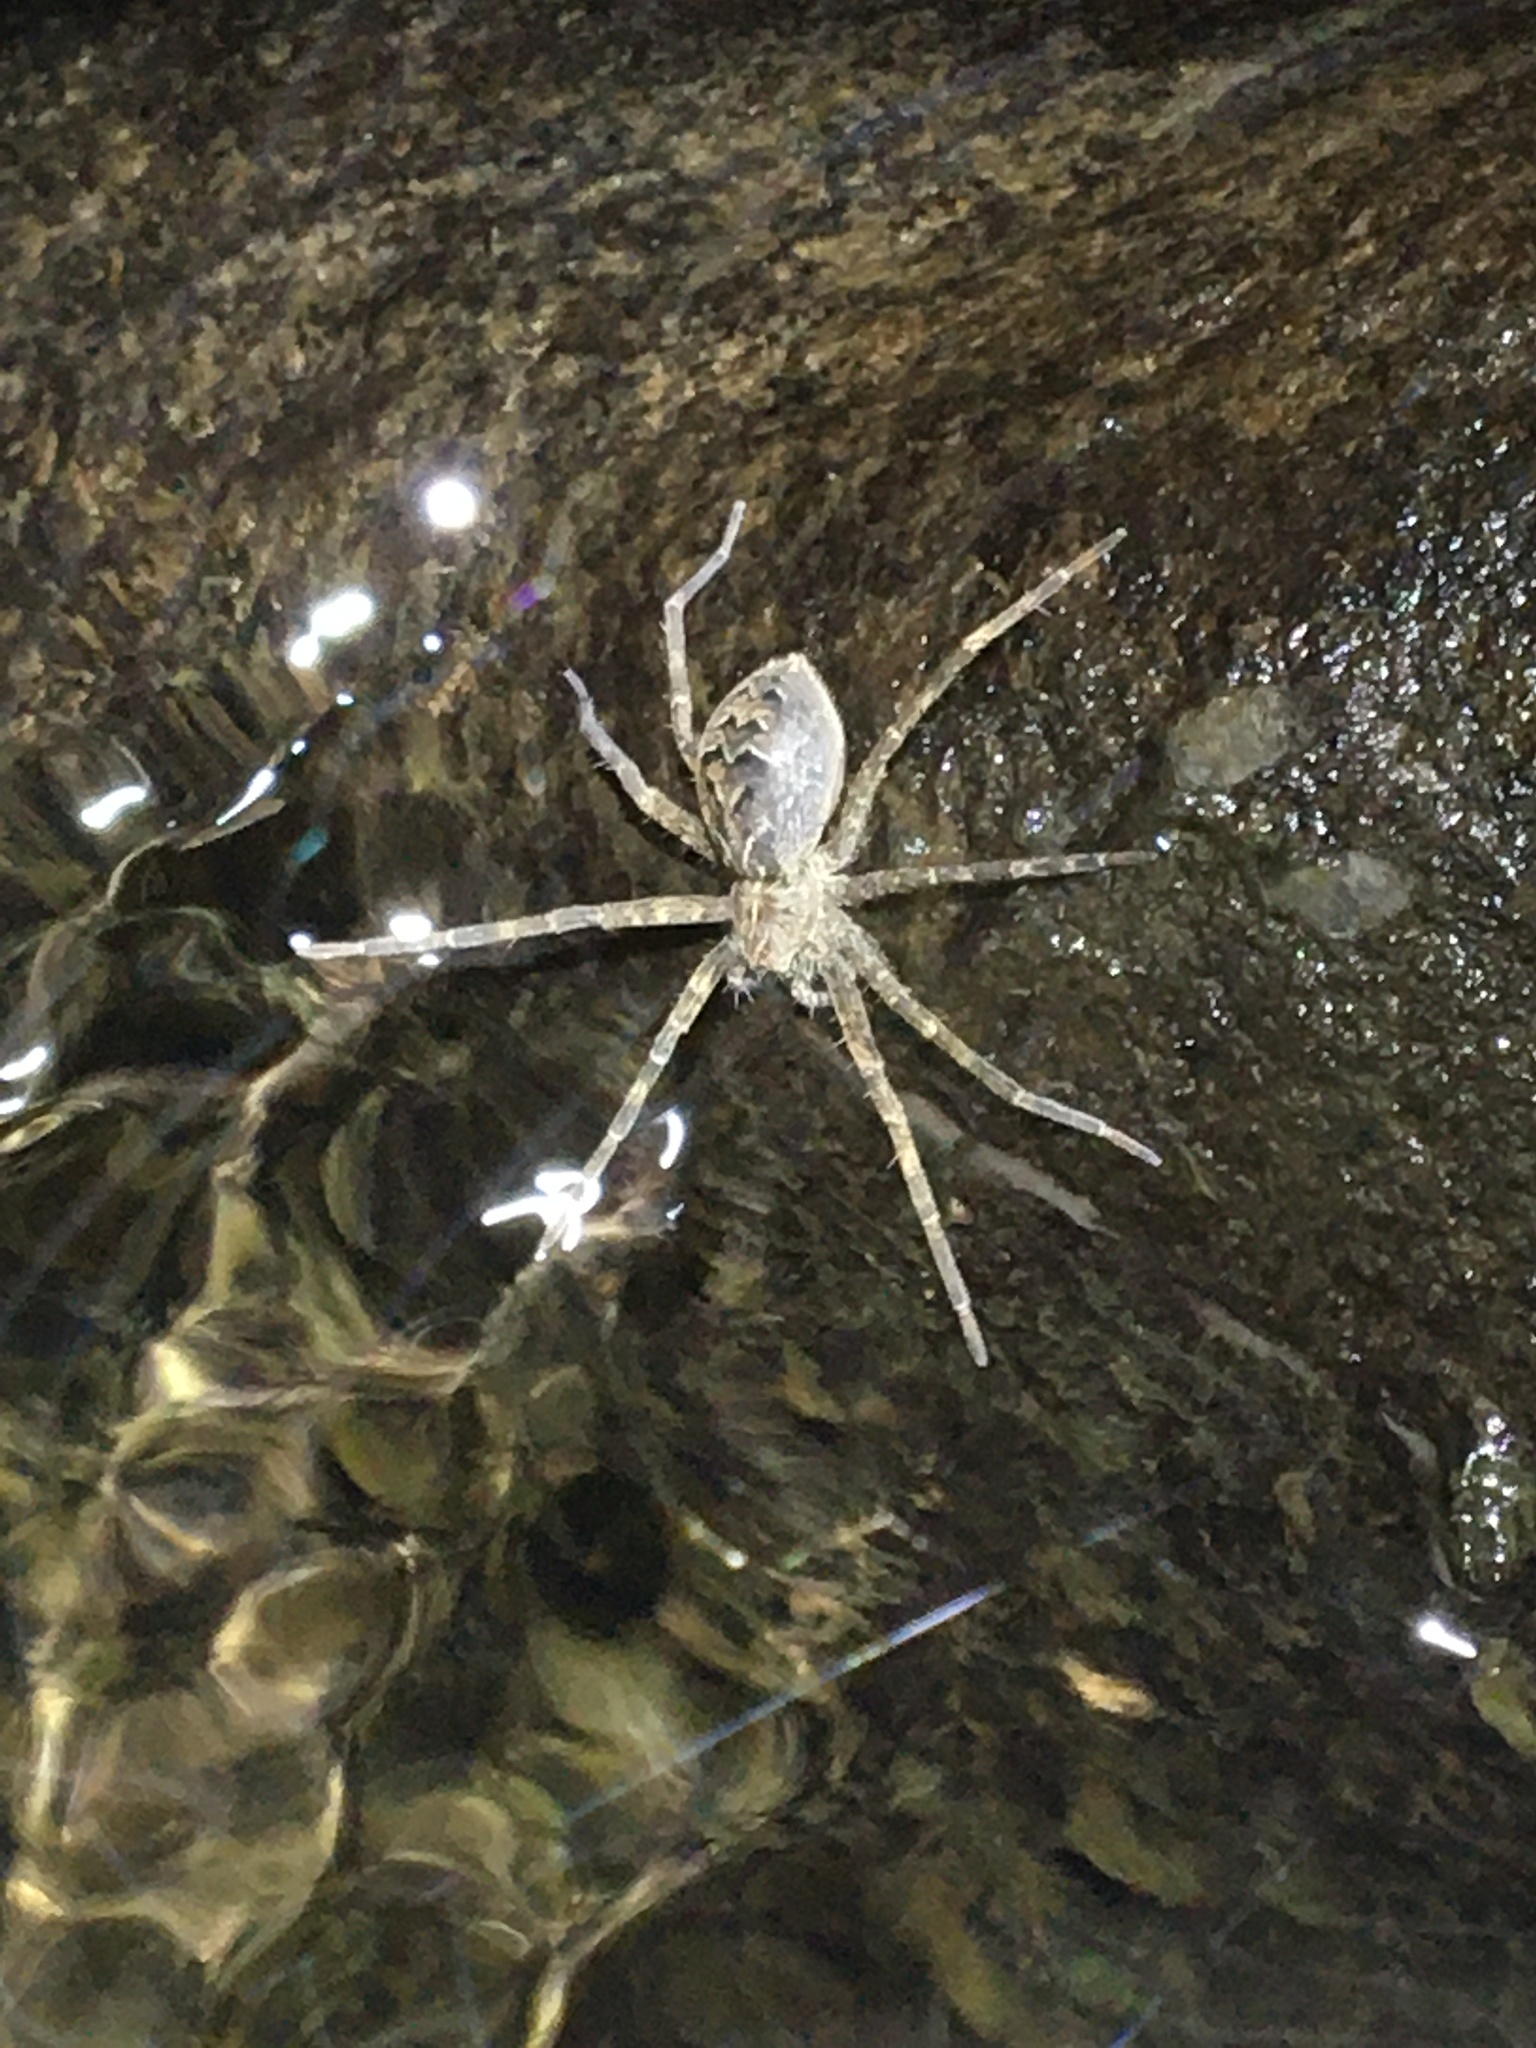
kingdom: Animalia
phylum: Arthropoda
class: Arachnida
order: Araneae
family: Pisauridae
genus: Dolomedes
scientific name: Dolomedes scriptus
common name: Striped fishing spider
